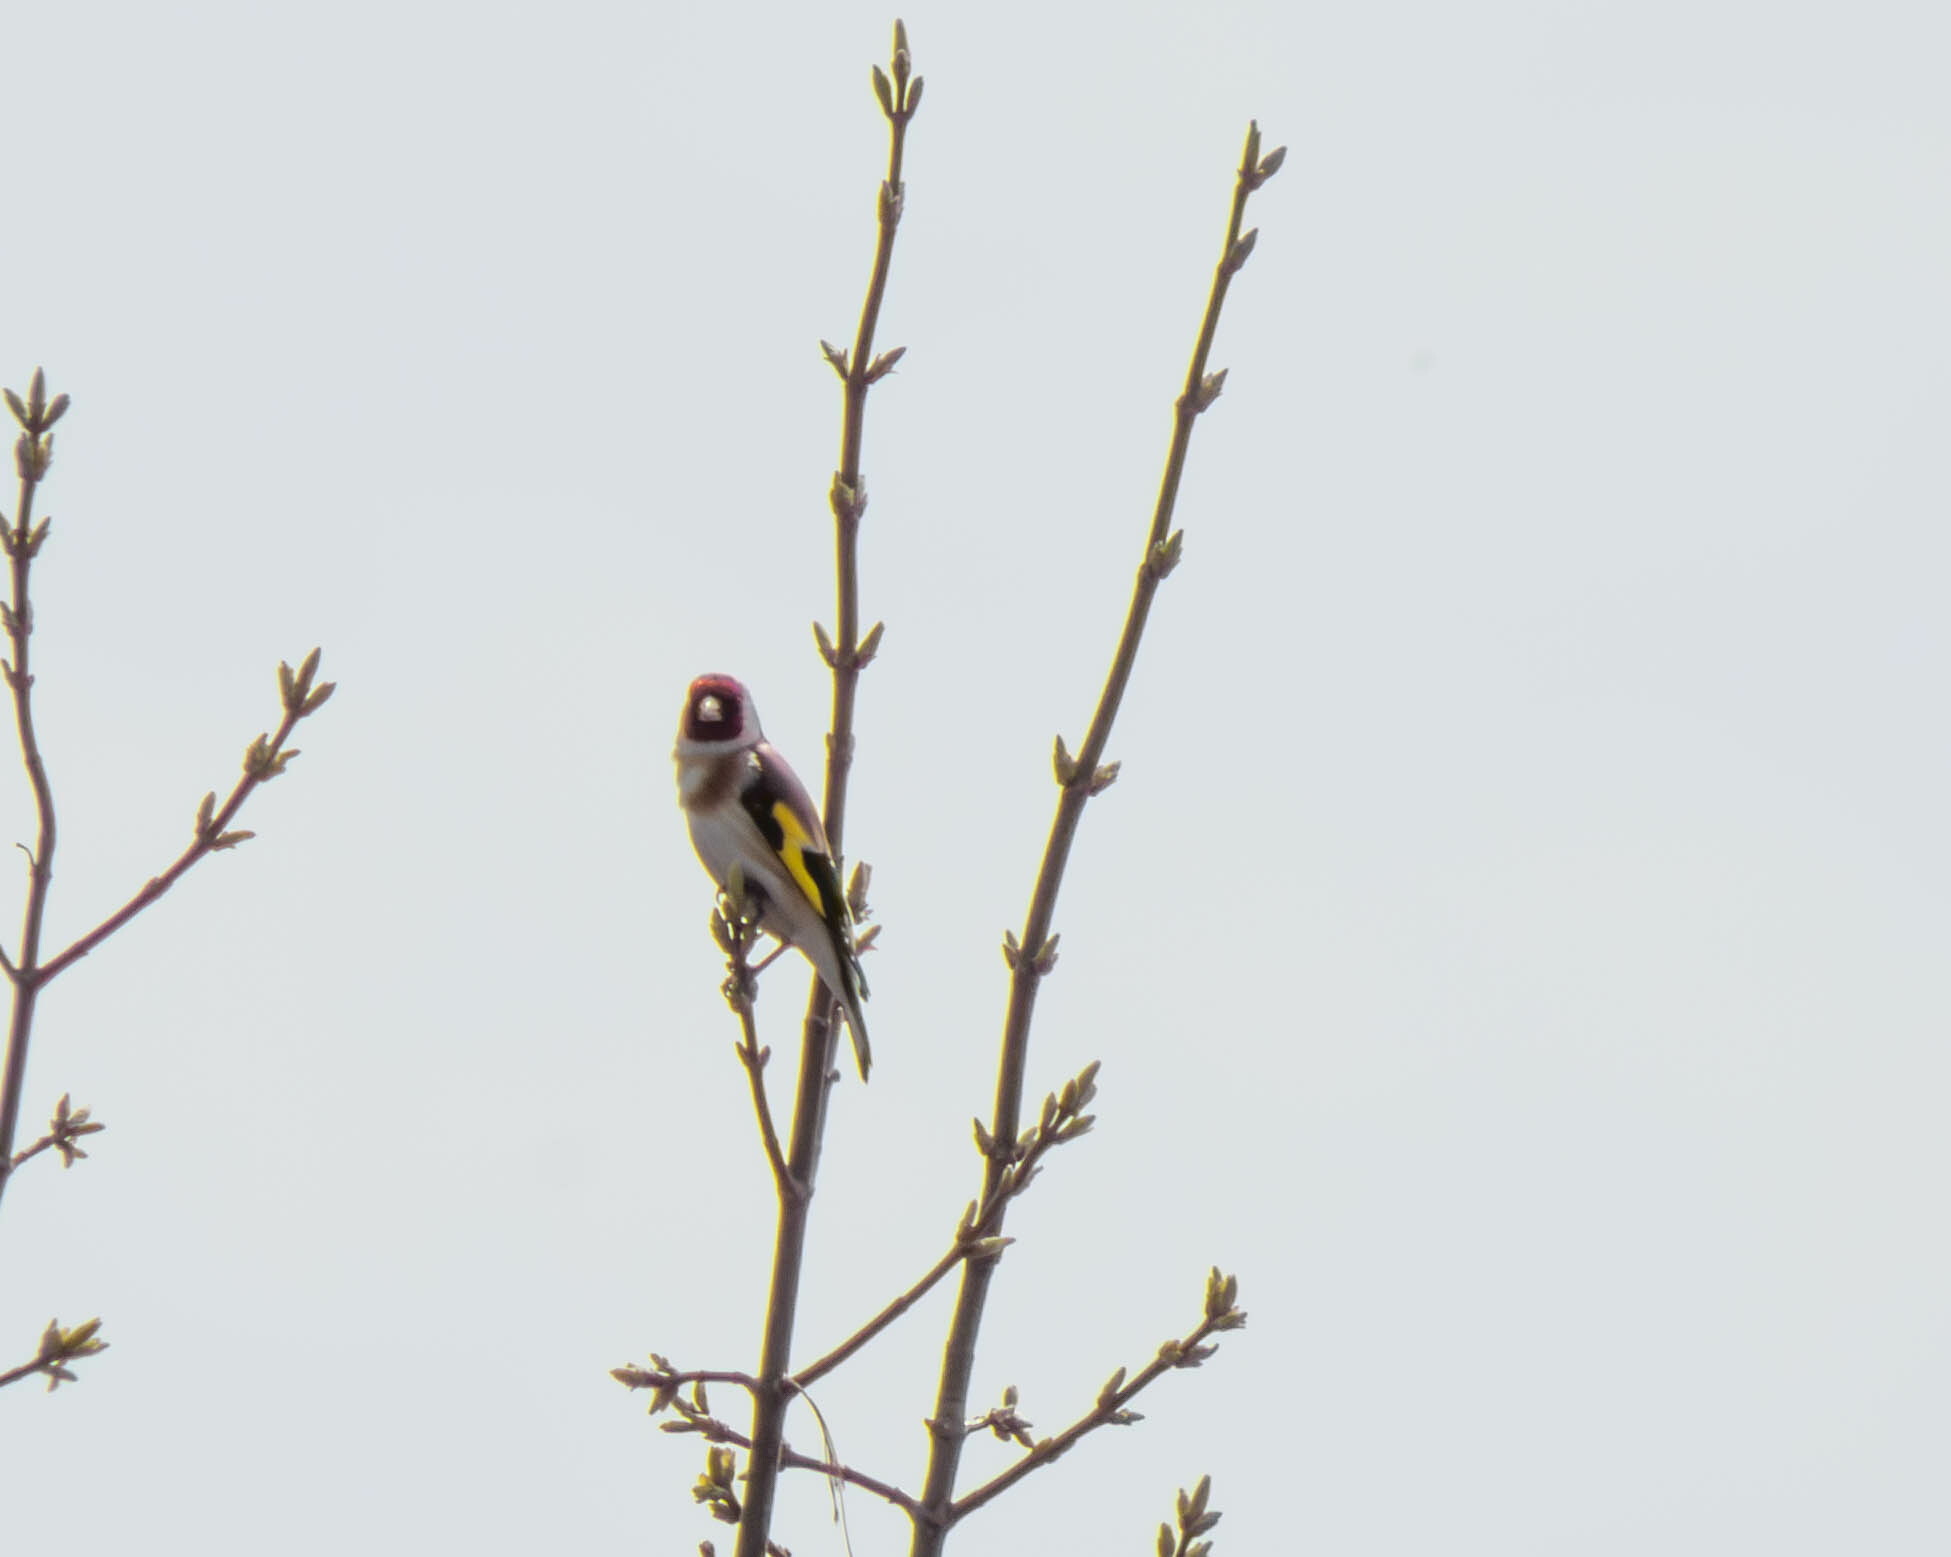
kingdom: Animalia
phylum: Chordata
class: Aves
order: Passeriformes
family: Fringillidae
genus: Carduelis
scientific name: Carduelis carduelis
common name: European goldfinch
